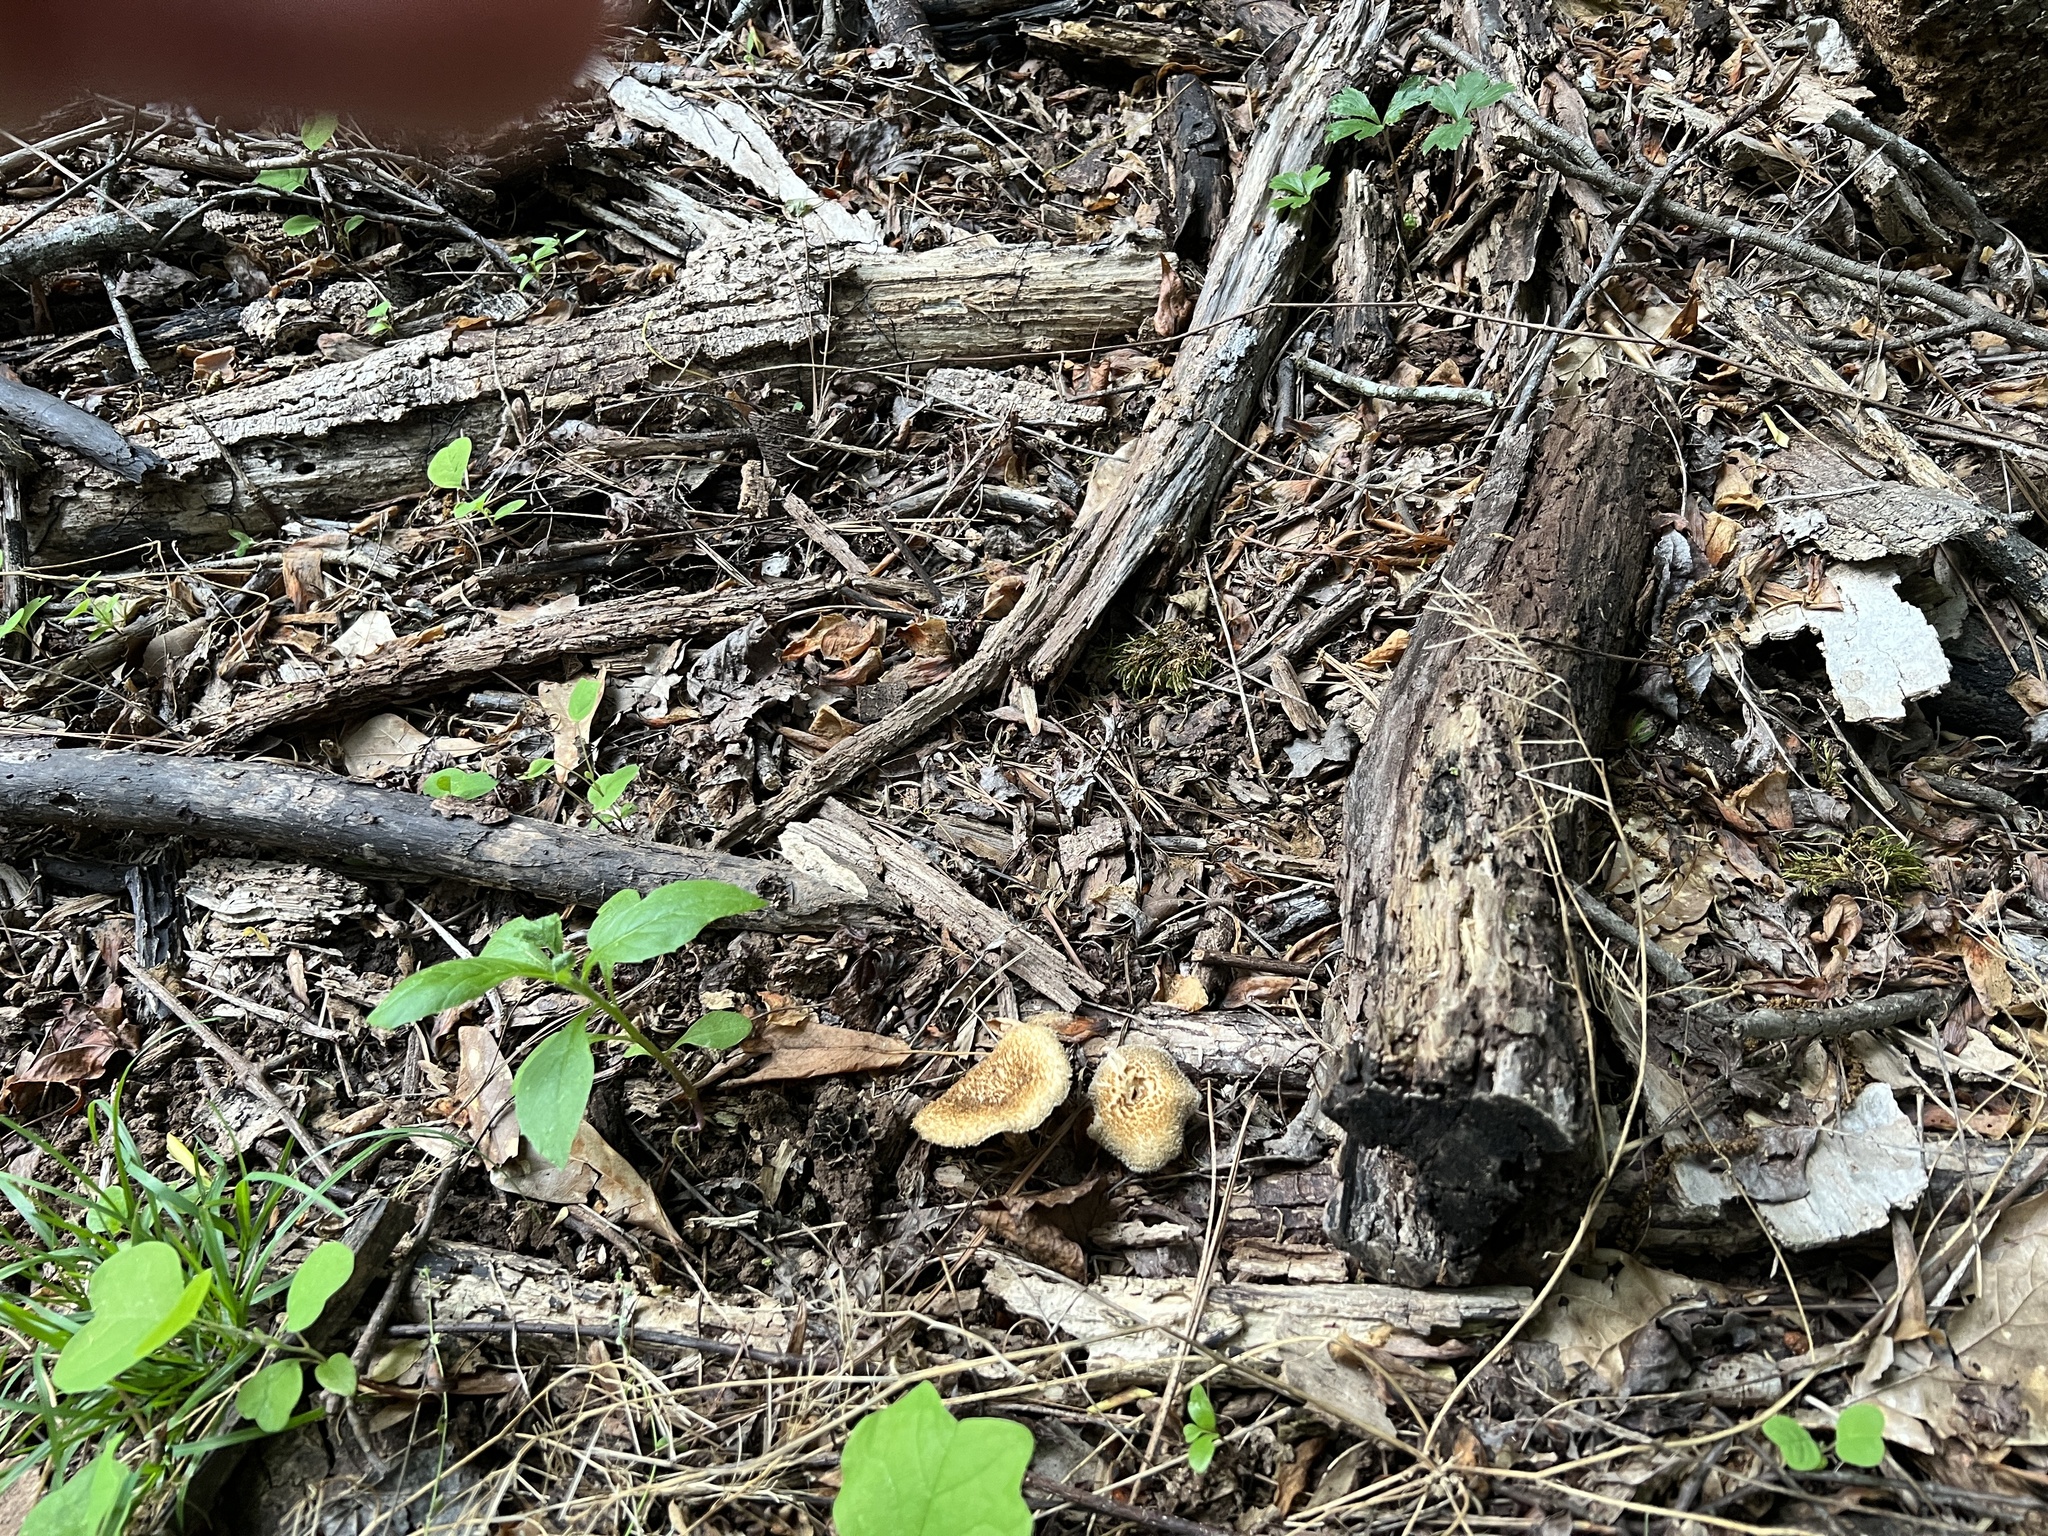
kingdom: Fungi
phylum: Basidiomycota
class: Agaricomycetes
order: Polyporales
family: Polyporaceae
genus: Lentinus
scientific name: Lentinus crinitus
